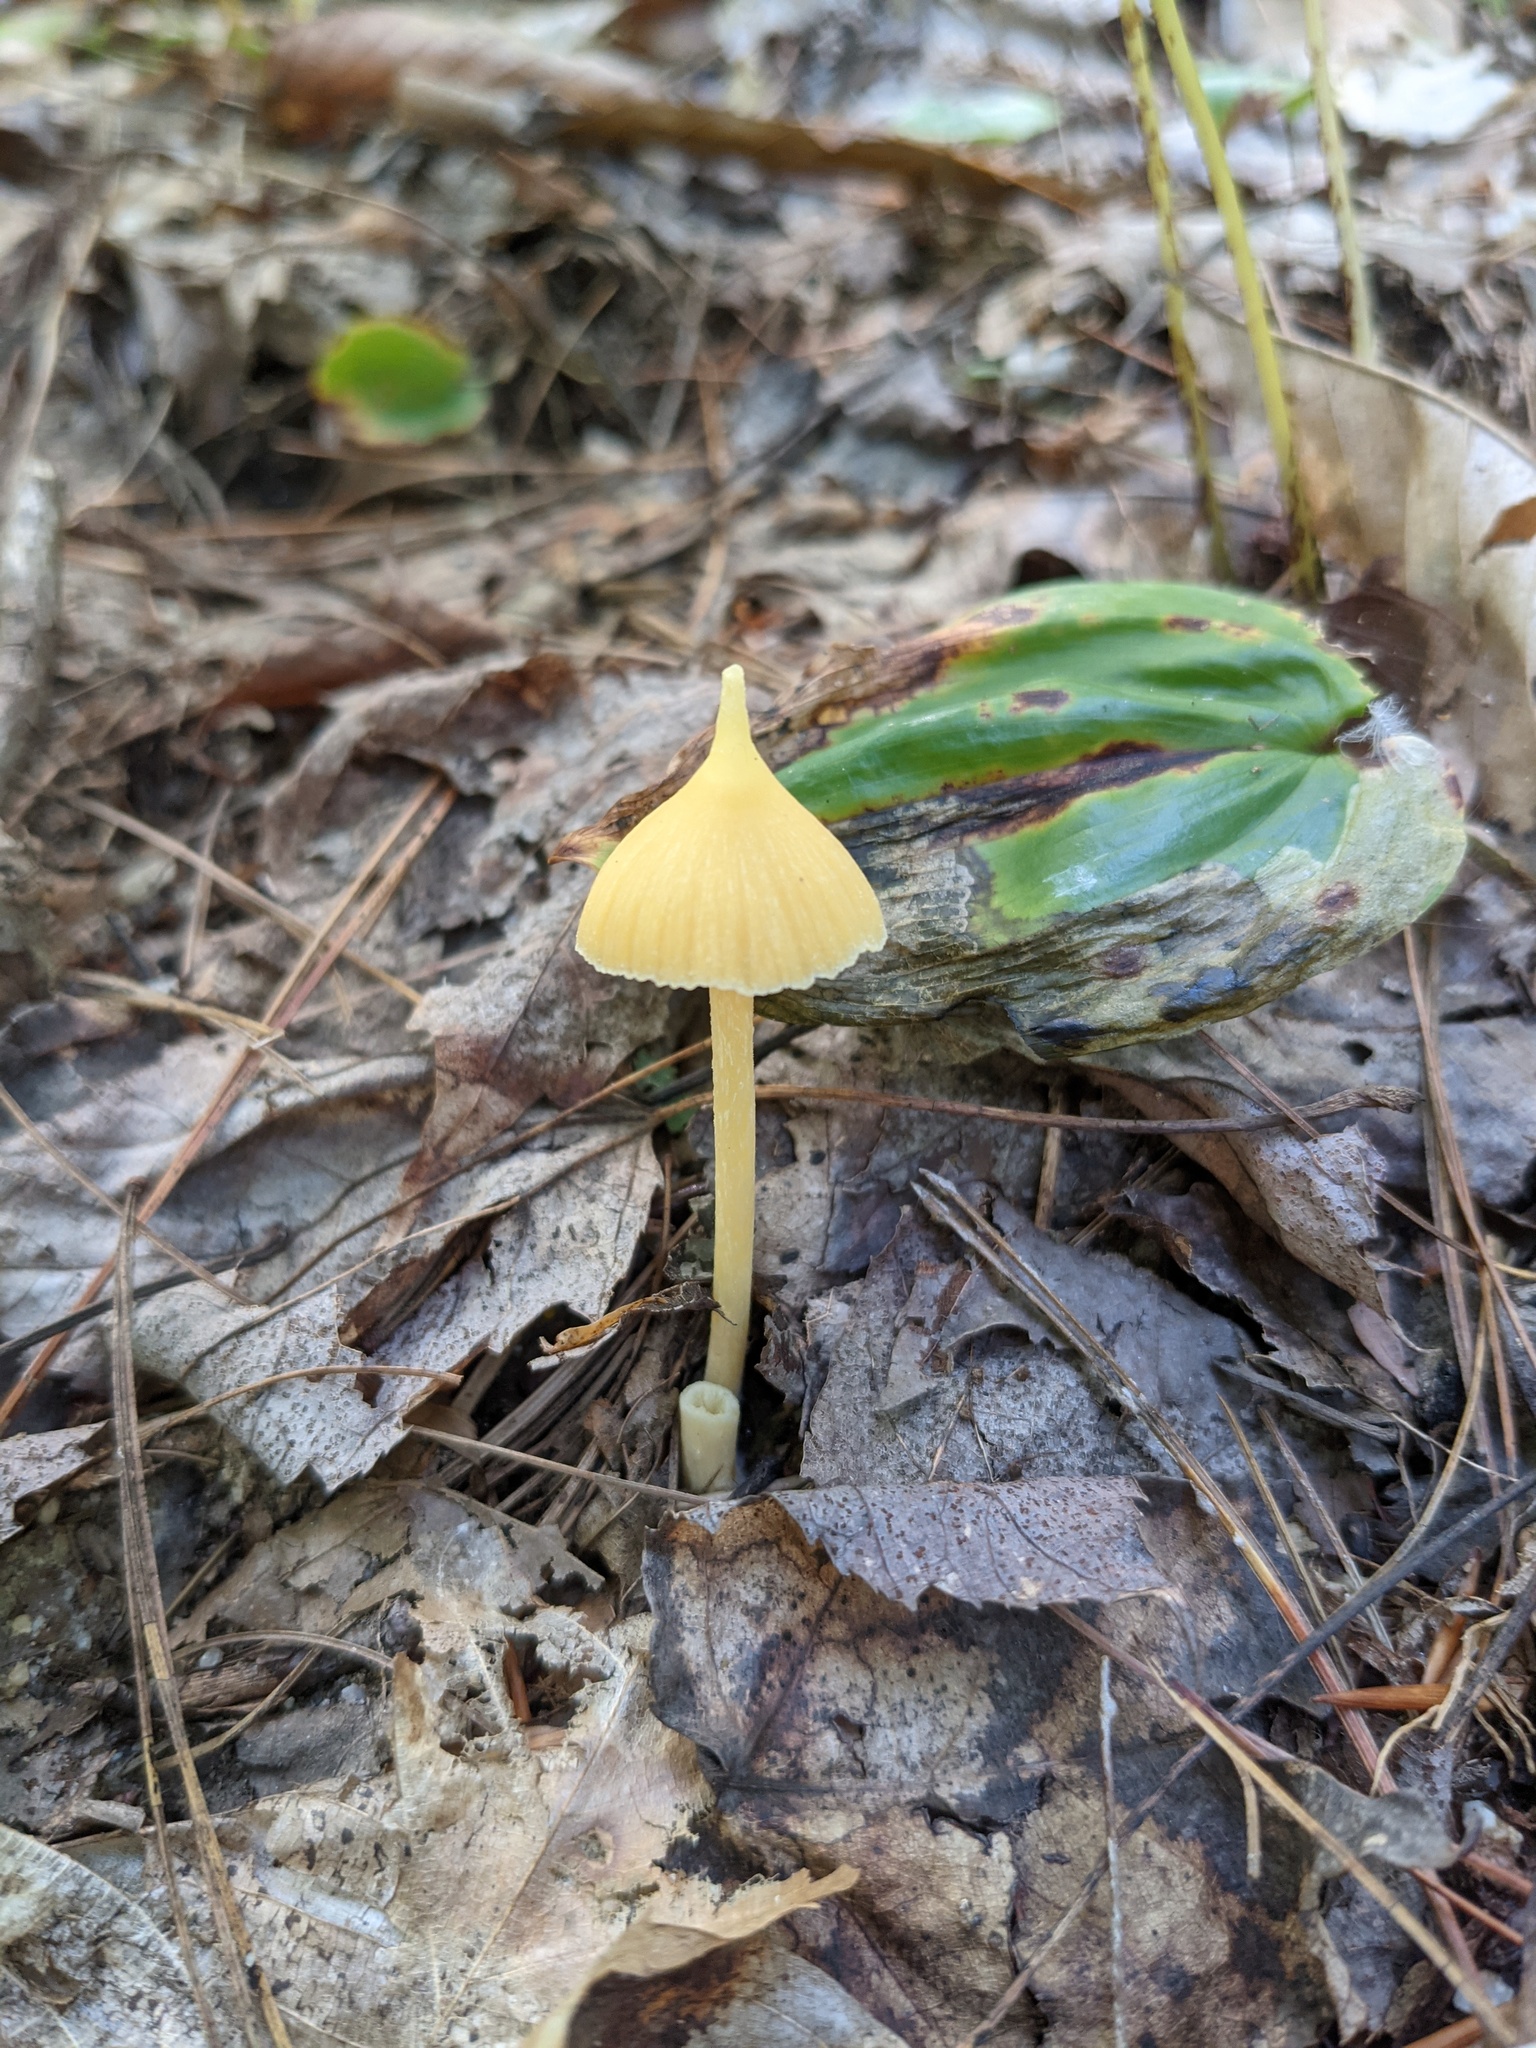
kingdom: Fungi
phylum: Basidiomycota
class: Agaricomycetes
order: Agaricales
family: Entolomataceae
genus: Entoloma
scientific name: Entoloma murrayi
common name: Yellow unicorn entoloma
